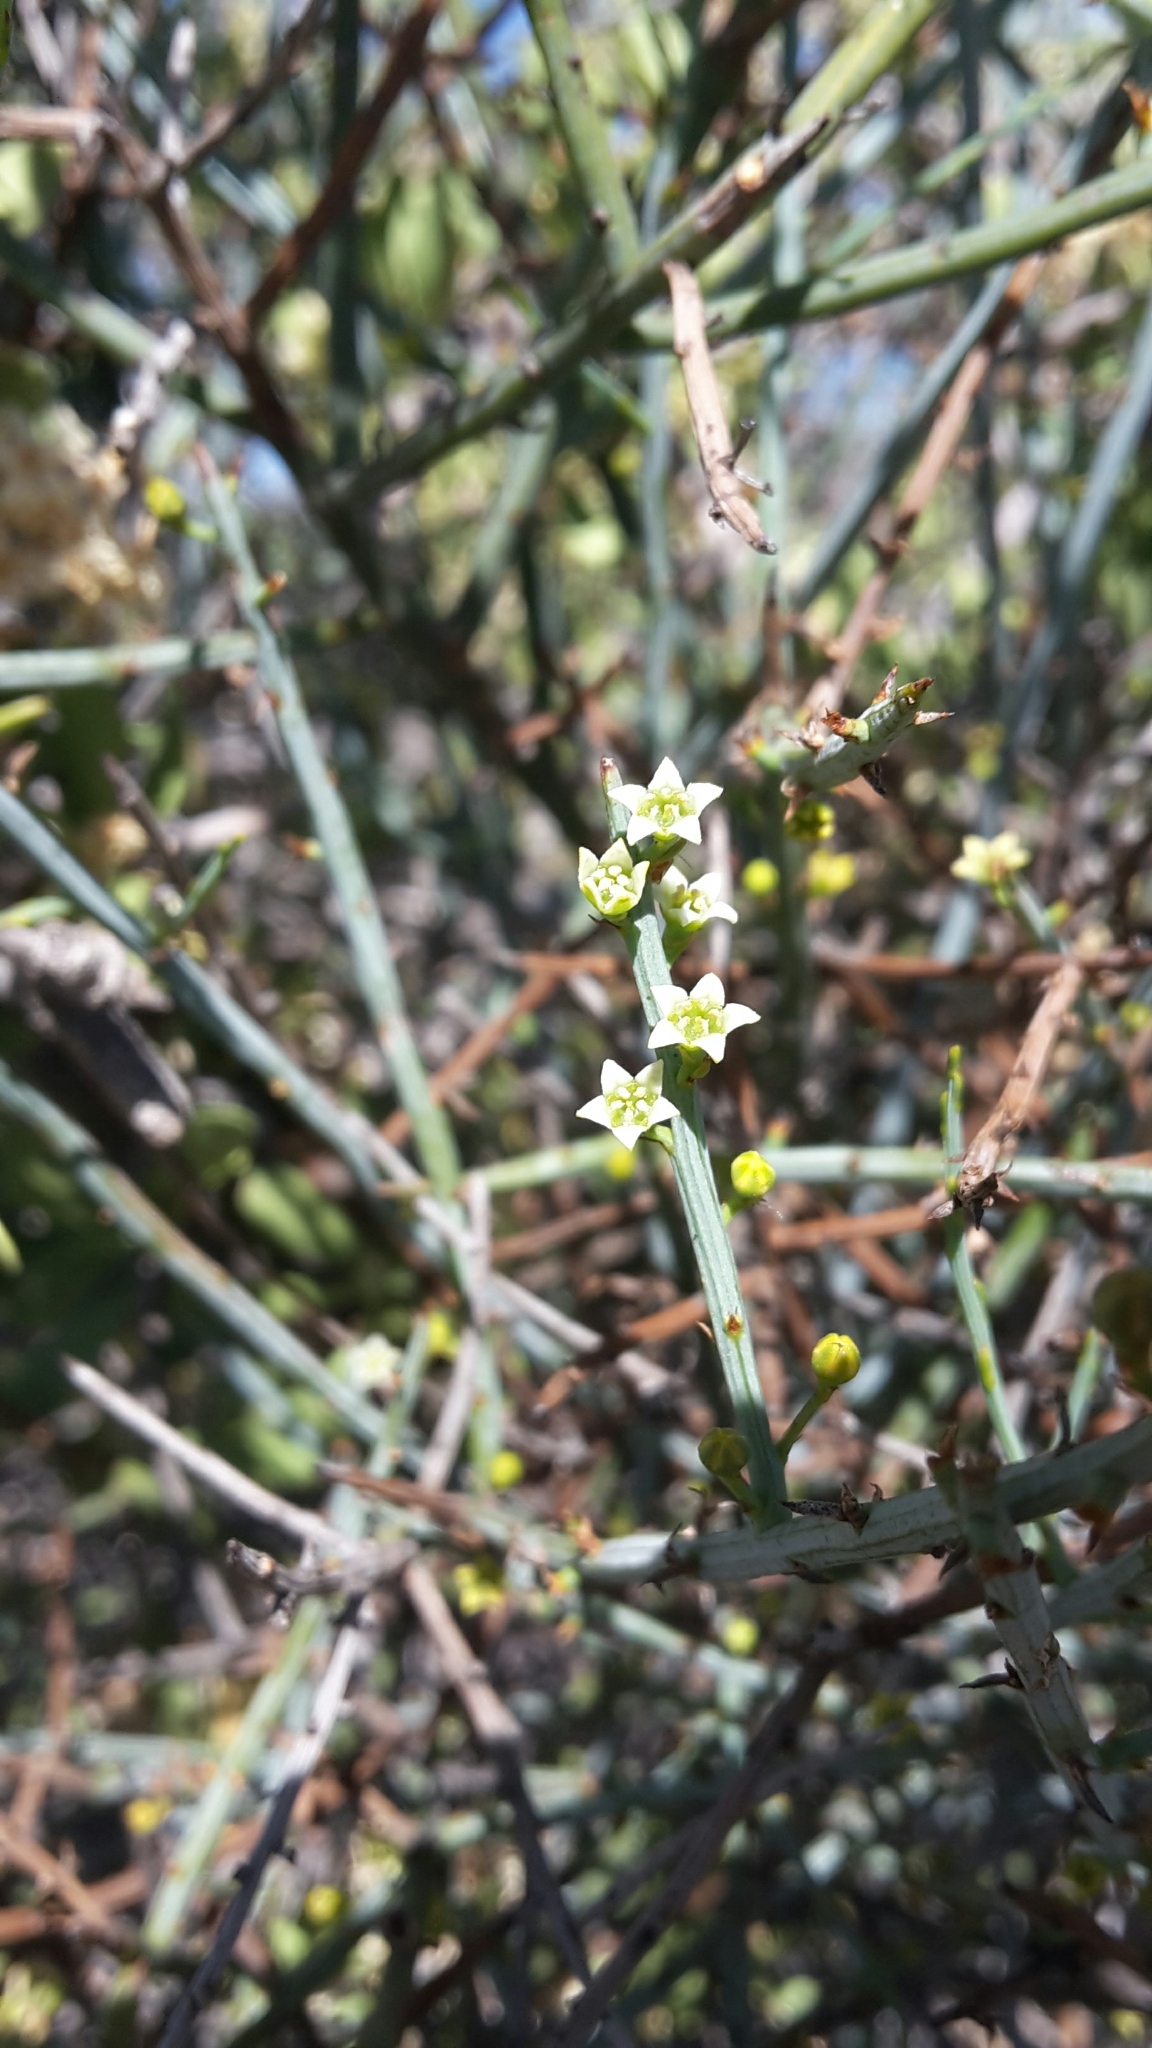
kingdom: Plantae
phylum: Tracheophyta
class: Magnoliopsida
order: Santalales
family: Thesiaceae
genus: Lacomucinaea
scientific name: Lacomucinaea lineata
